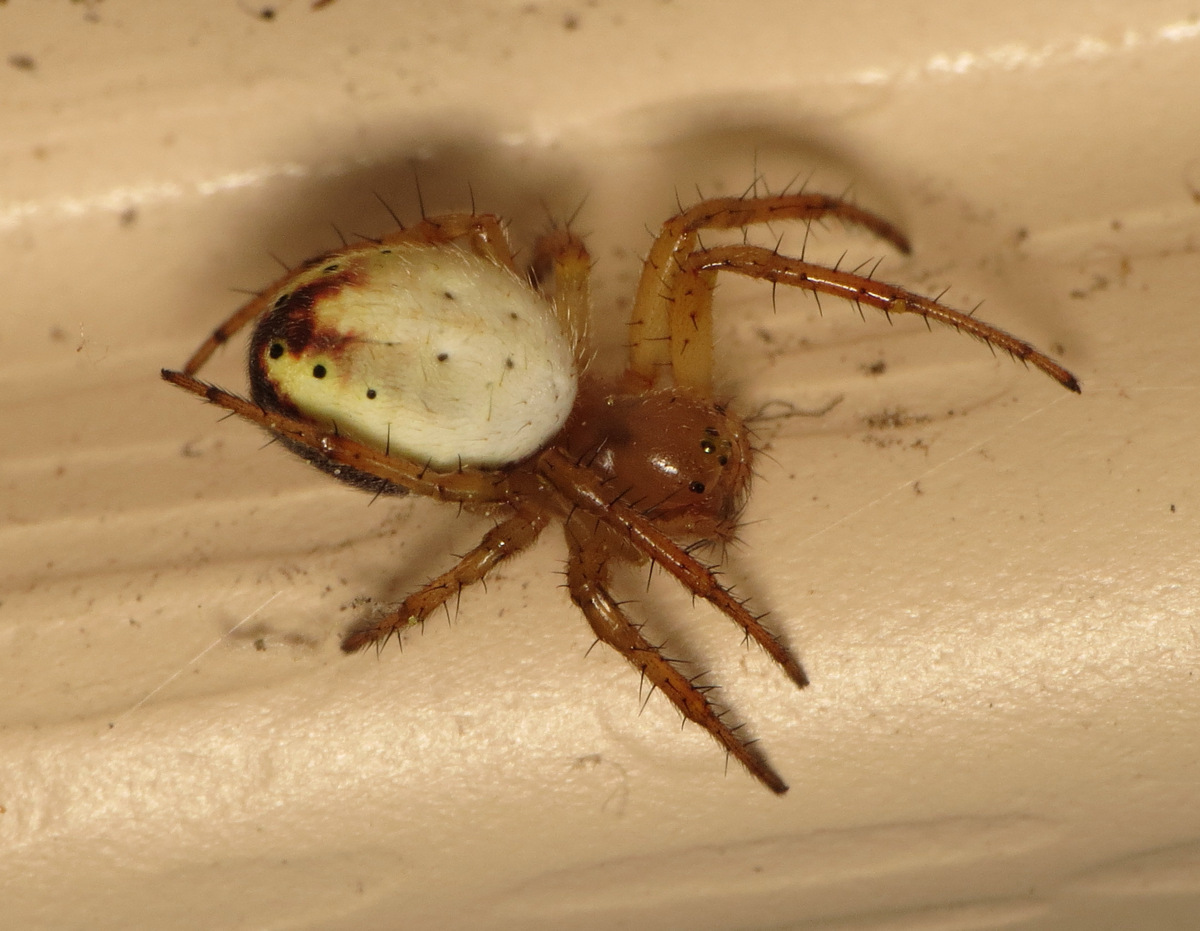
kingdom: Animalia
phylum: Arthropoda
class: Arachnida
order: Araneae
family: Araneidae
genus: Araniella
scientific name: Araniella displicata
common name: Sixspotted orb weaver
